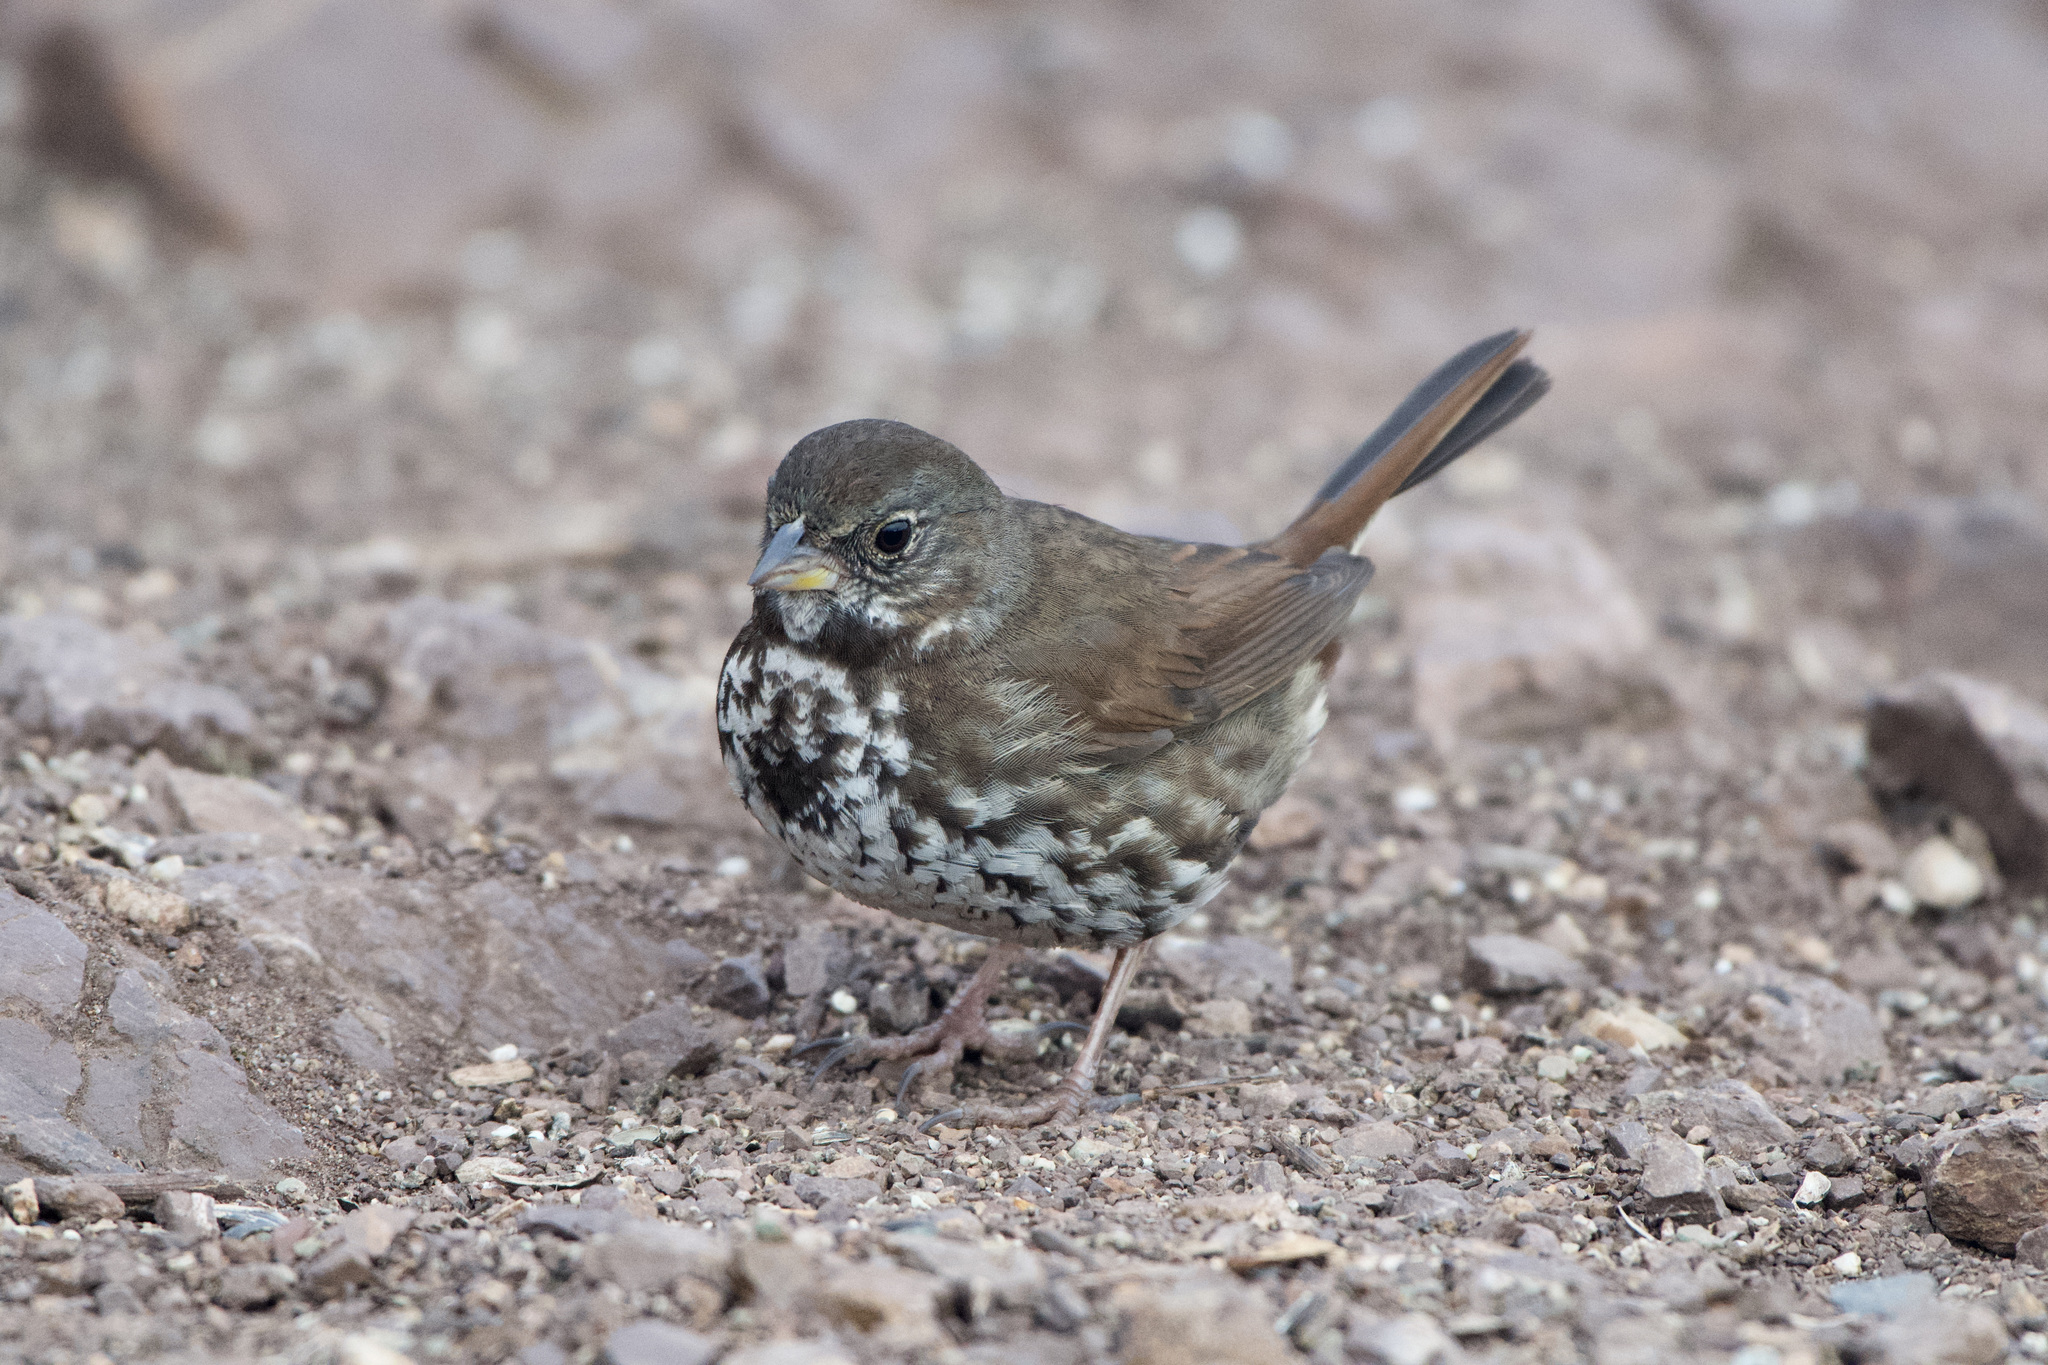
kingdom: Animalia
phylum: Chordata
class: Aves
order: Passeriformes
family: Passerellidae
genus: Passerella
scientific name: Passerella iliaca
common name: Fox sparrow
